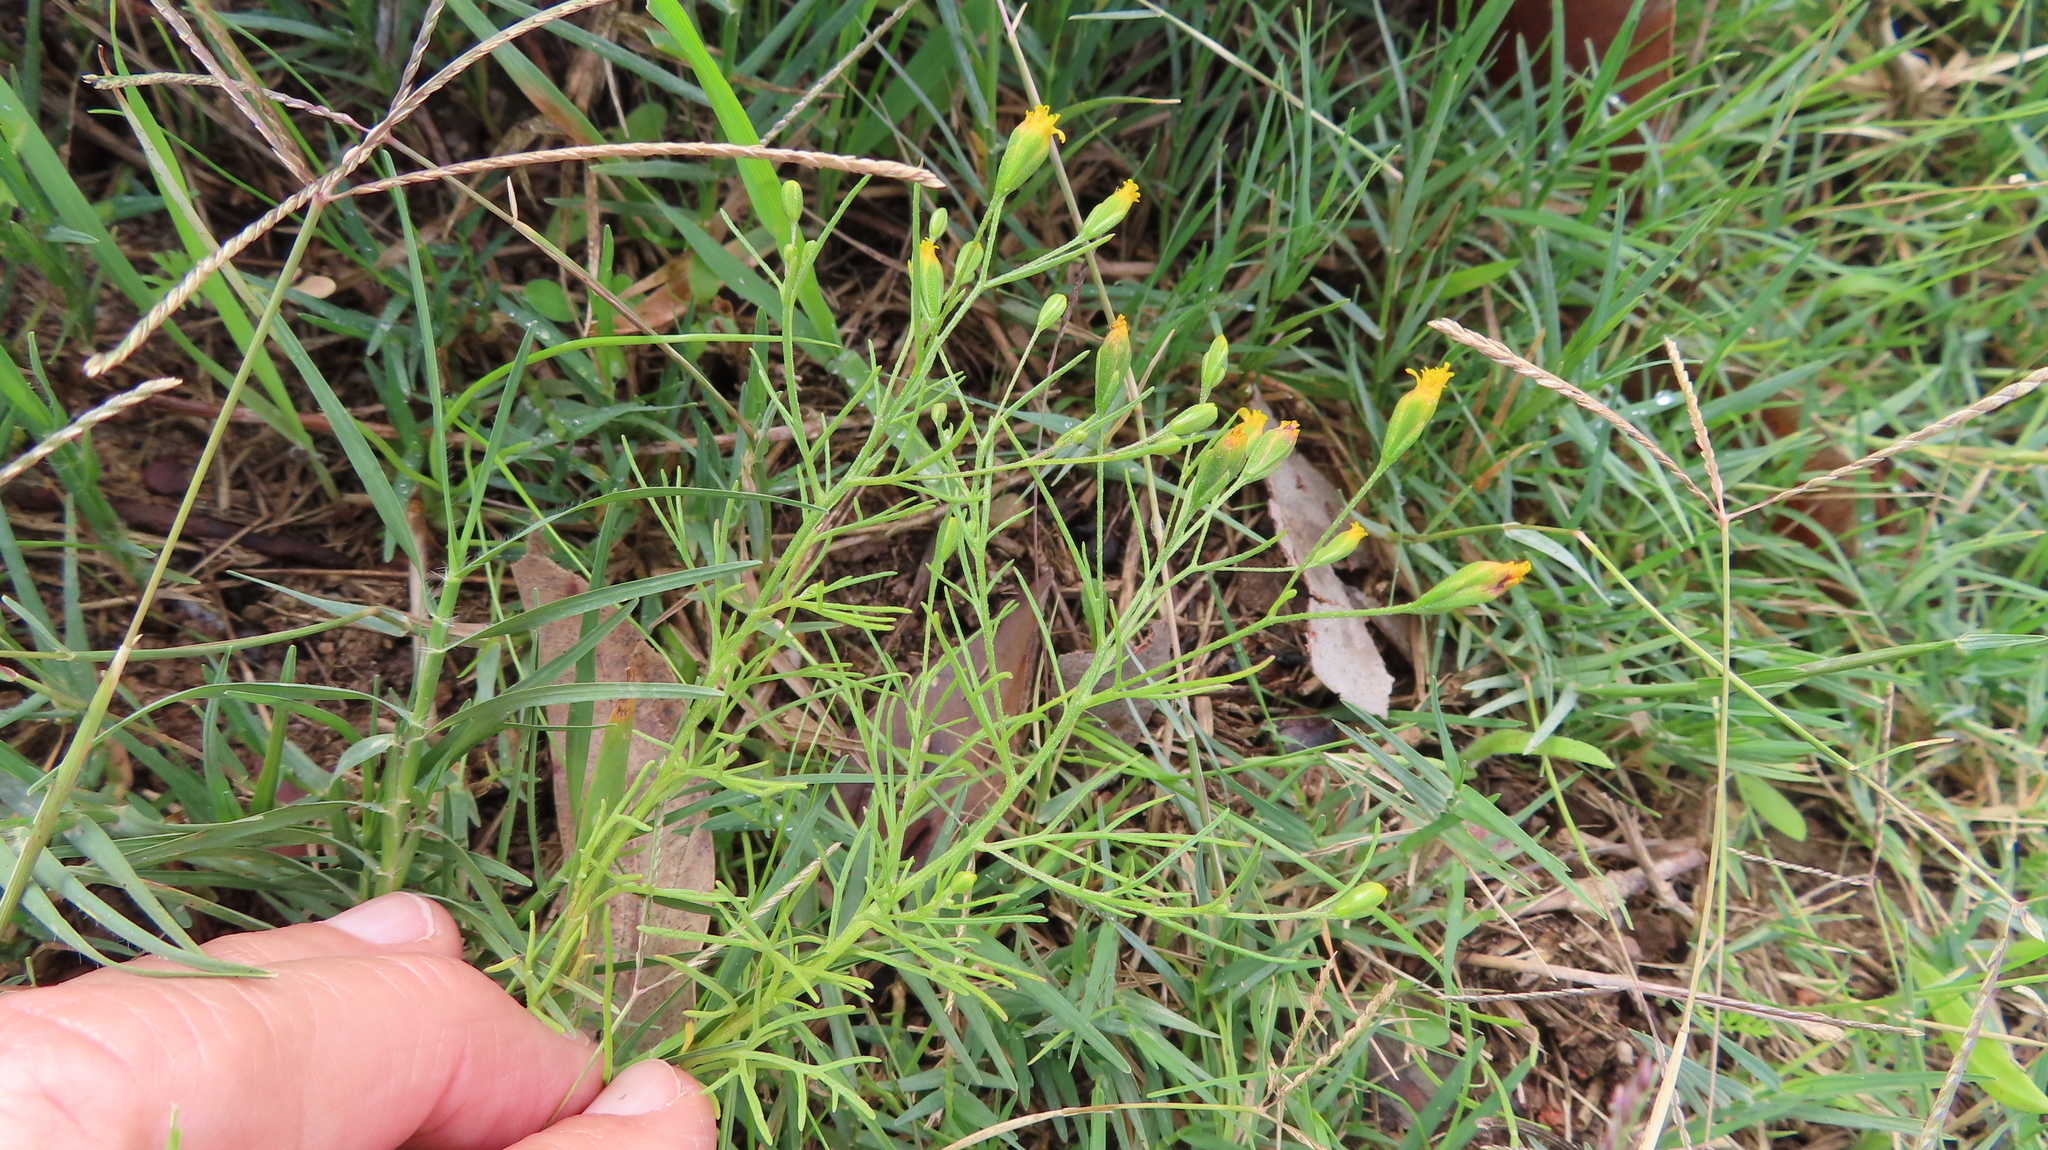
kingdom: Plantae
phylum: Tracheophyta
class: Magnoliopsida
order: Asterales
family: Asteraceae
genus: Schkuhria
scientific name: Schkuhria pinnata
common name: Dwarf marigold
